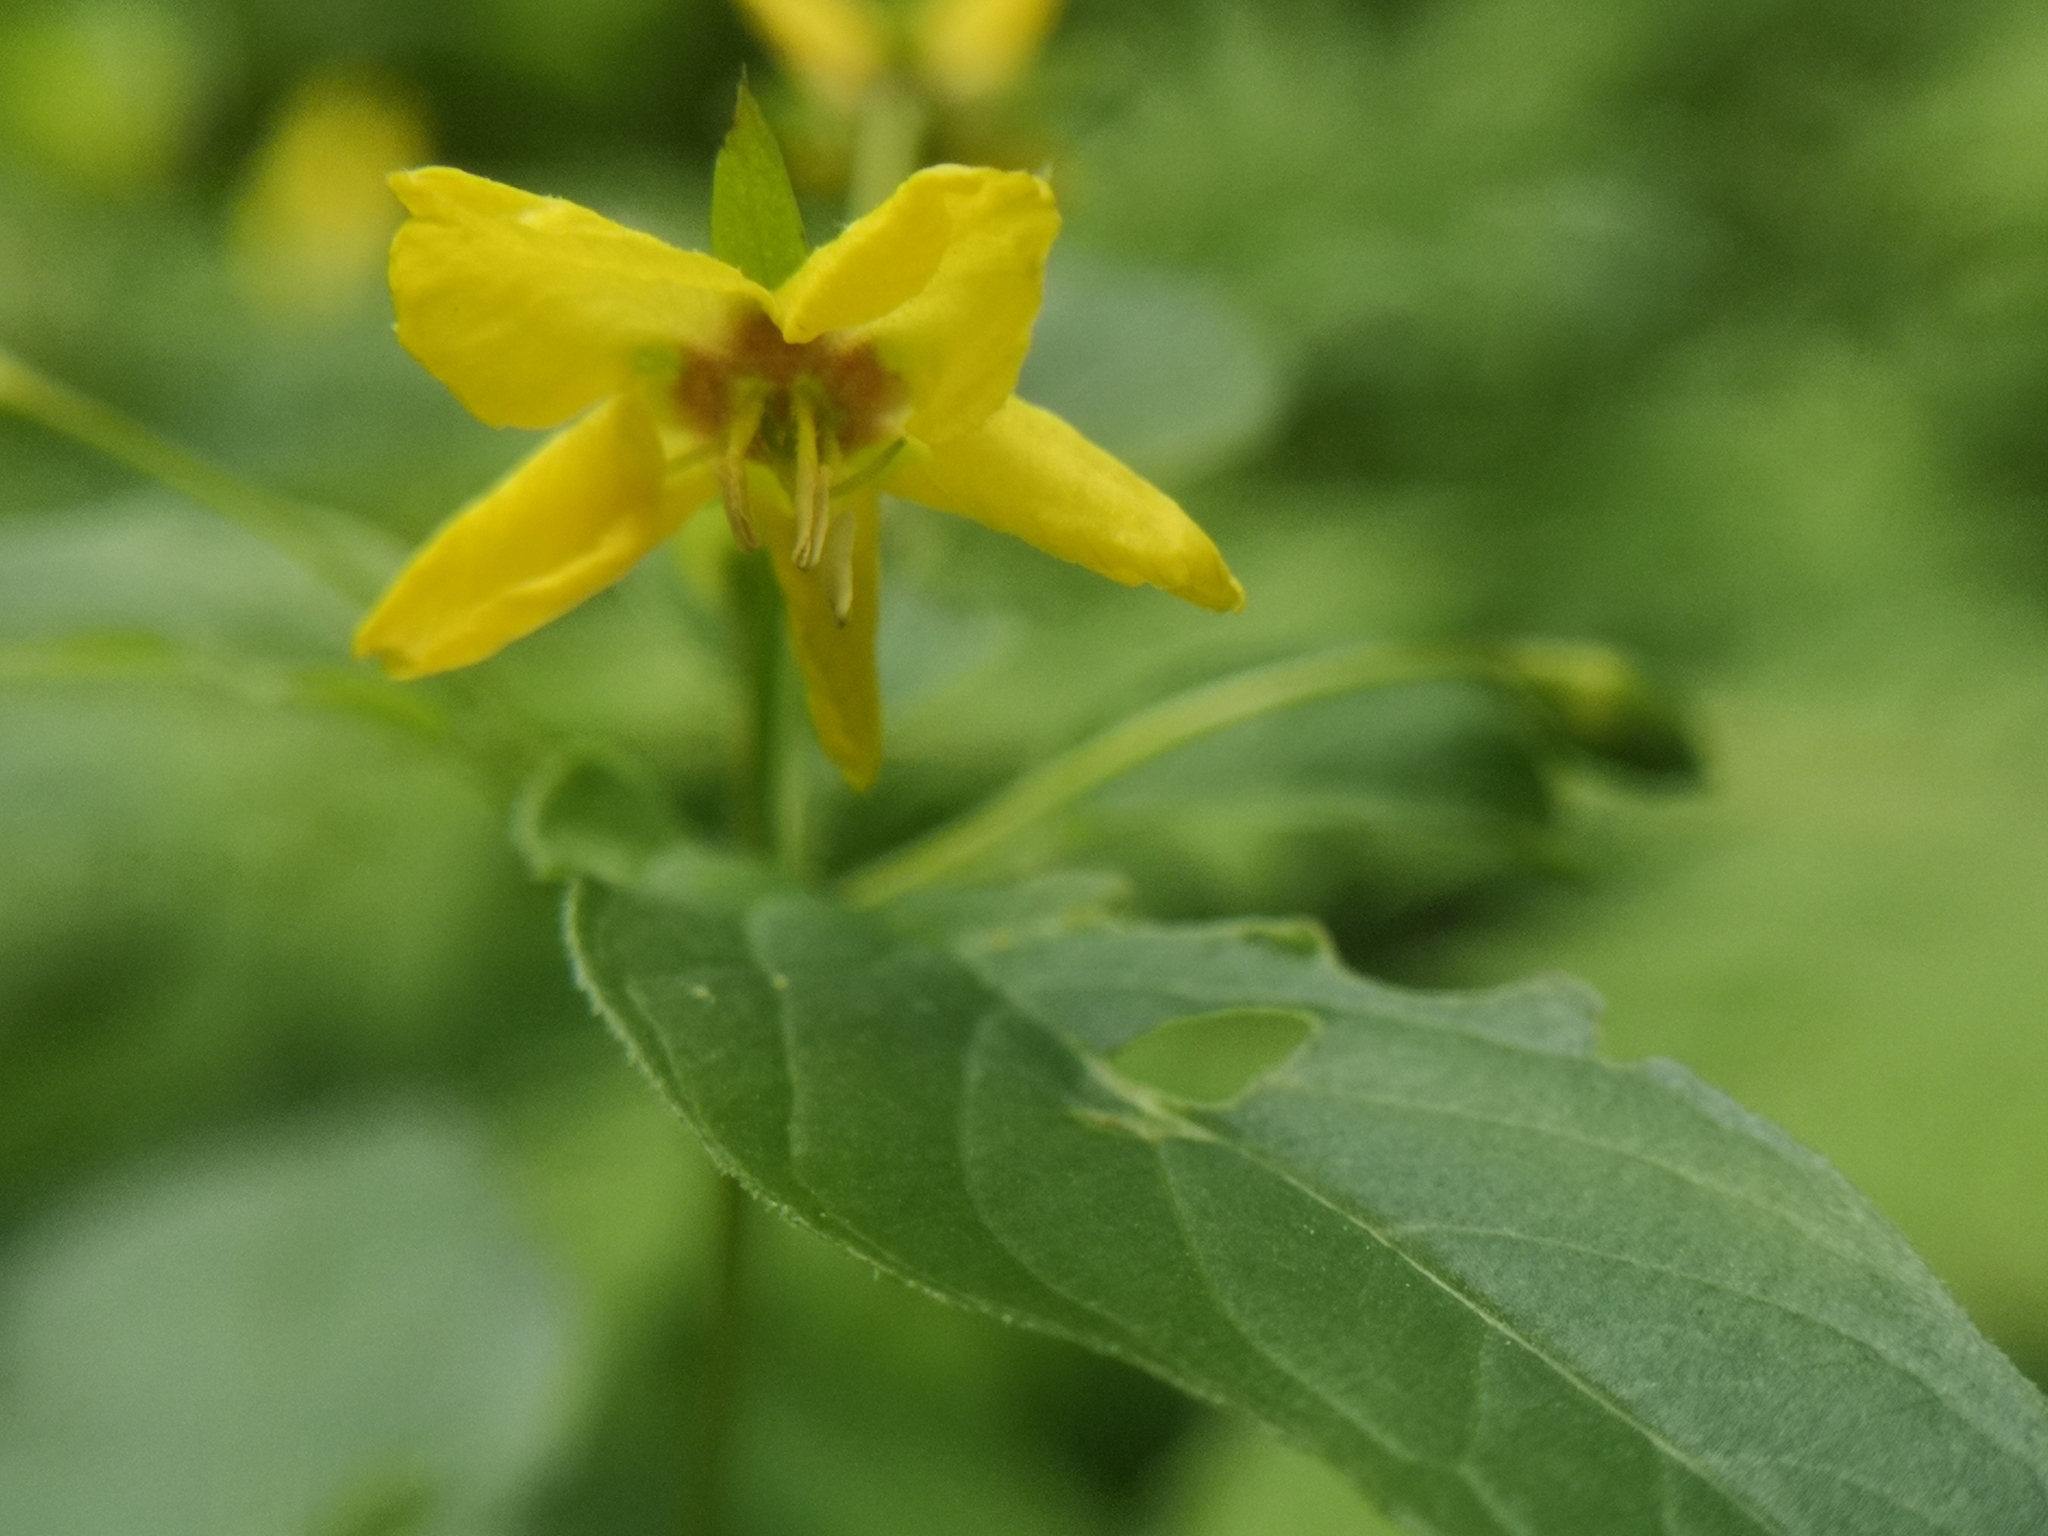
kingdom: Plantae
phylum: Tracheophyta
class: Magnoliopsida
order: Ericales
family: Primulaceae
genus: Lysimachia
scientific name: Lysimachia ciliata
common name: Fringed loosestrife
